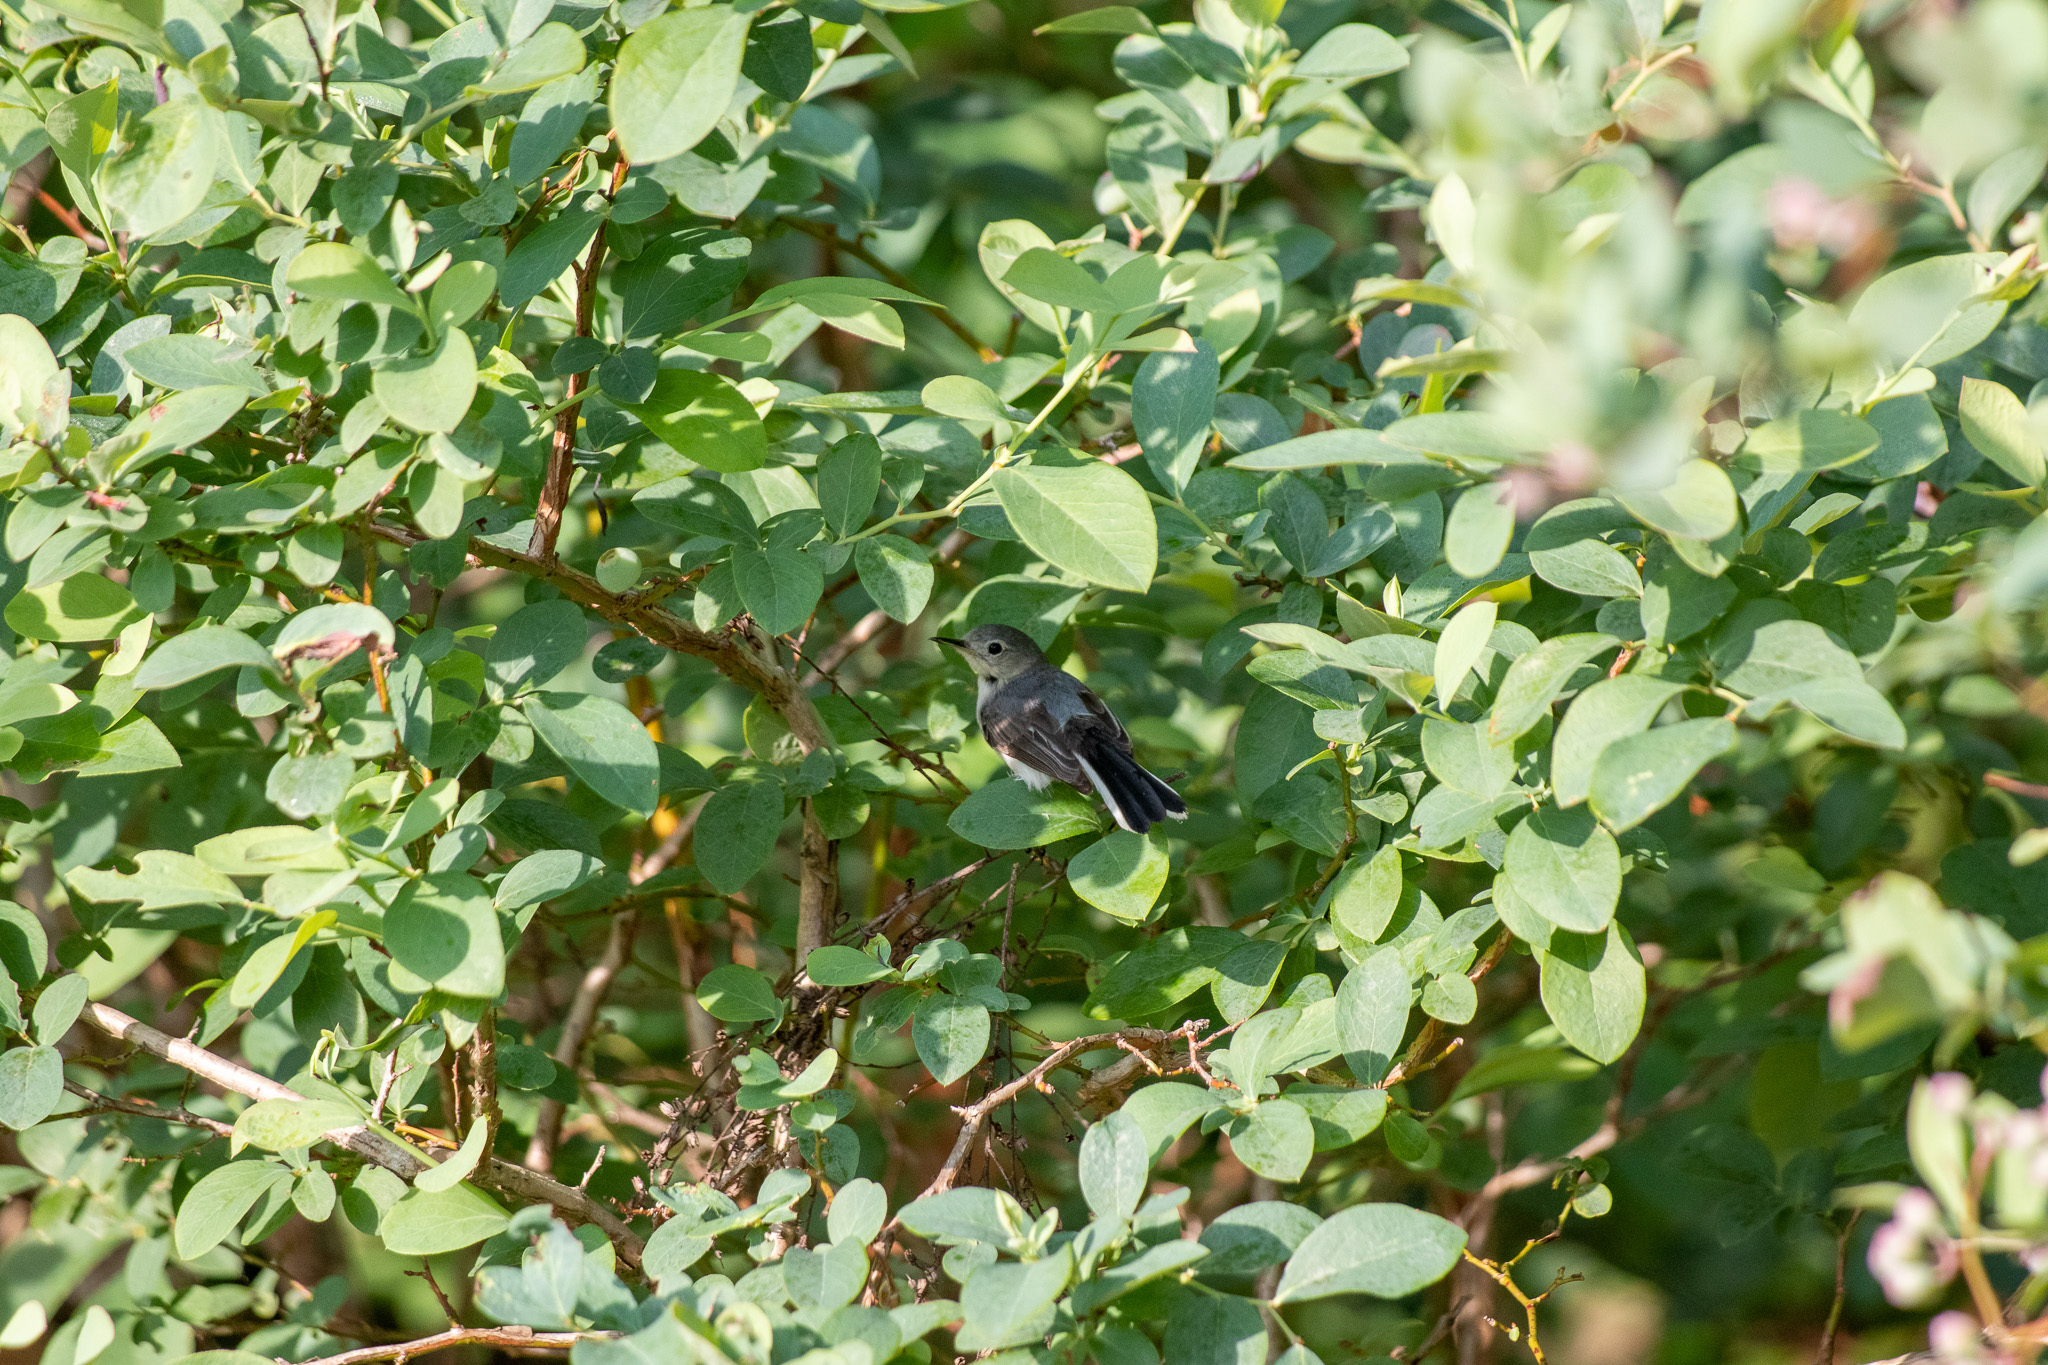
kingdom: Animalia
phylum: Chordata
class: Aves
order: Passeriformes
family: Polioptilidae
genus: Polioptila
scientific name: Polioptila caerulea
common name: Blue-gray gnatcatcher
